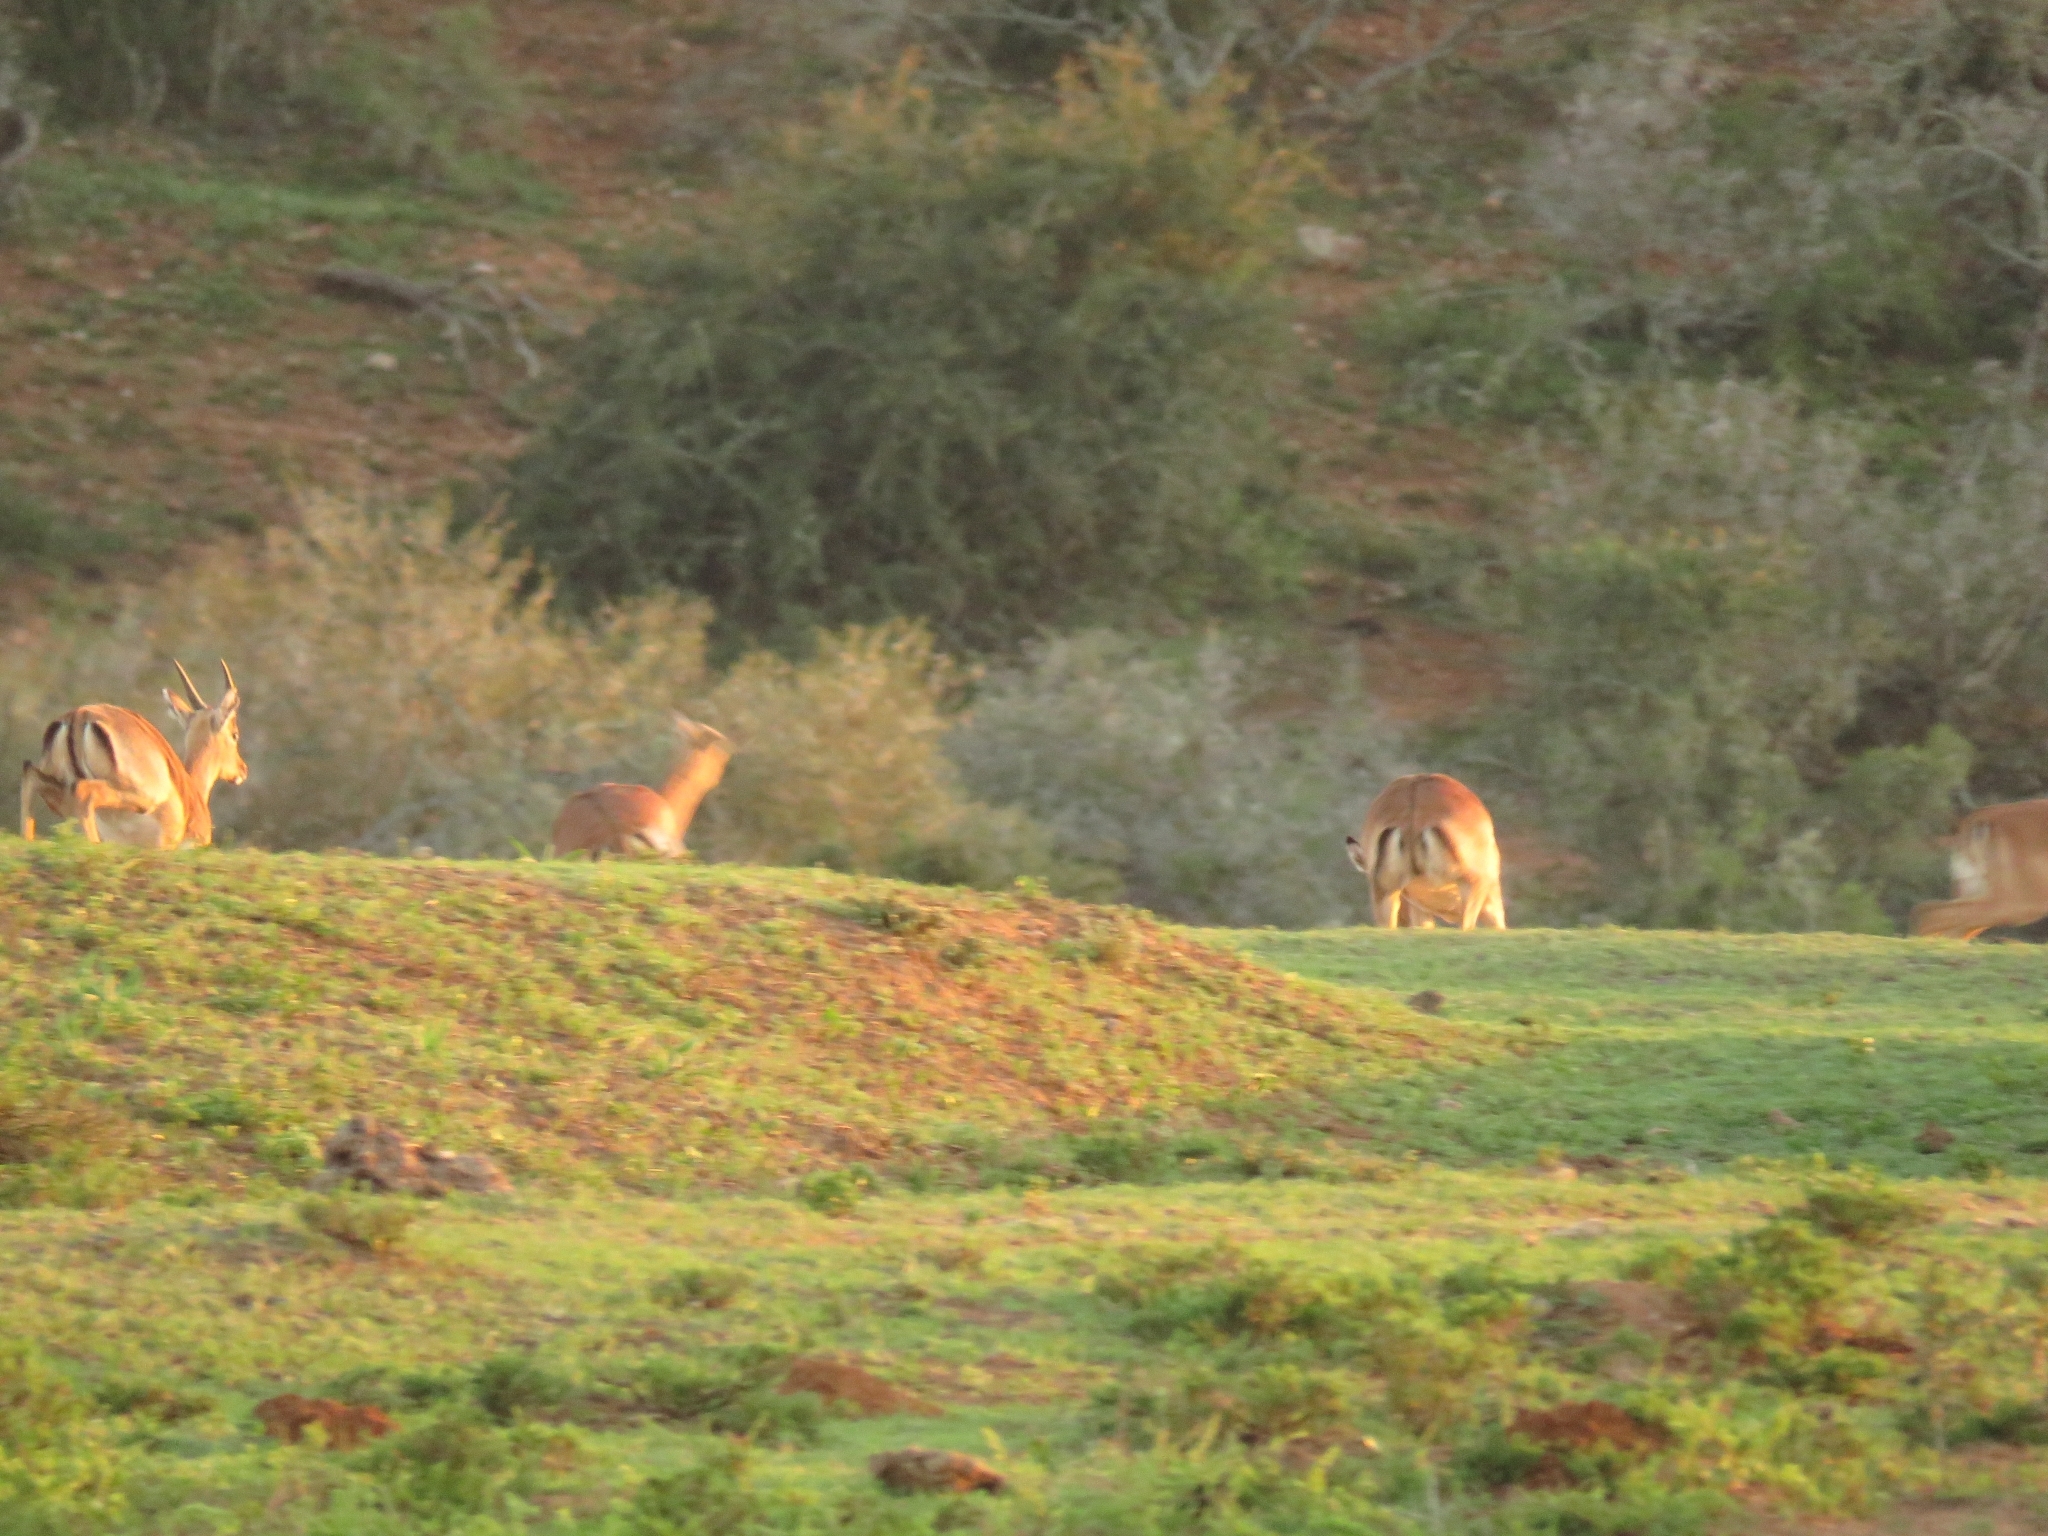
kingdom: Animalia
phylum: Chordata
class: Mammalia
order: Artiodactyla
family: Bovidae
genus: Aepyceros
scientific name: Aepyceros melampus
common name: Impala
